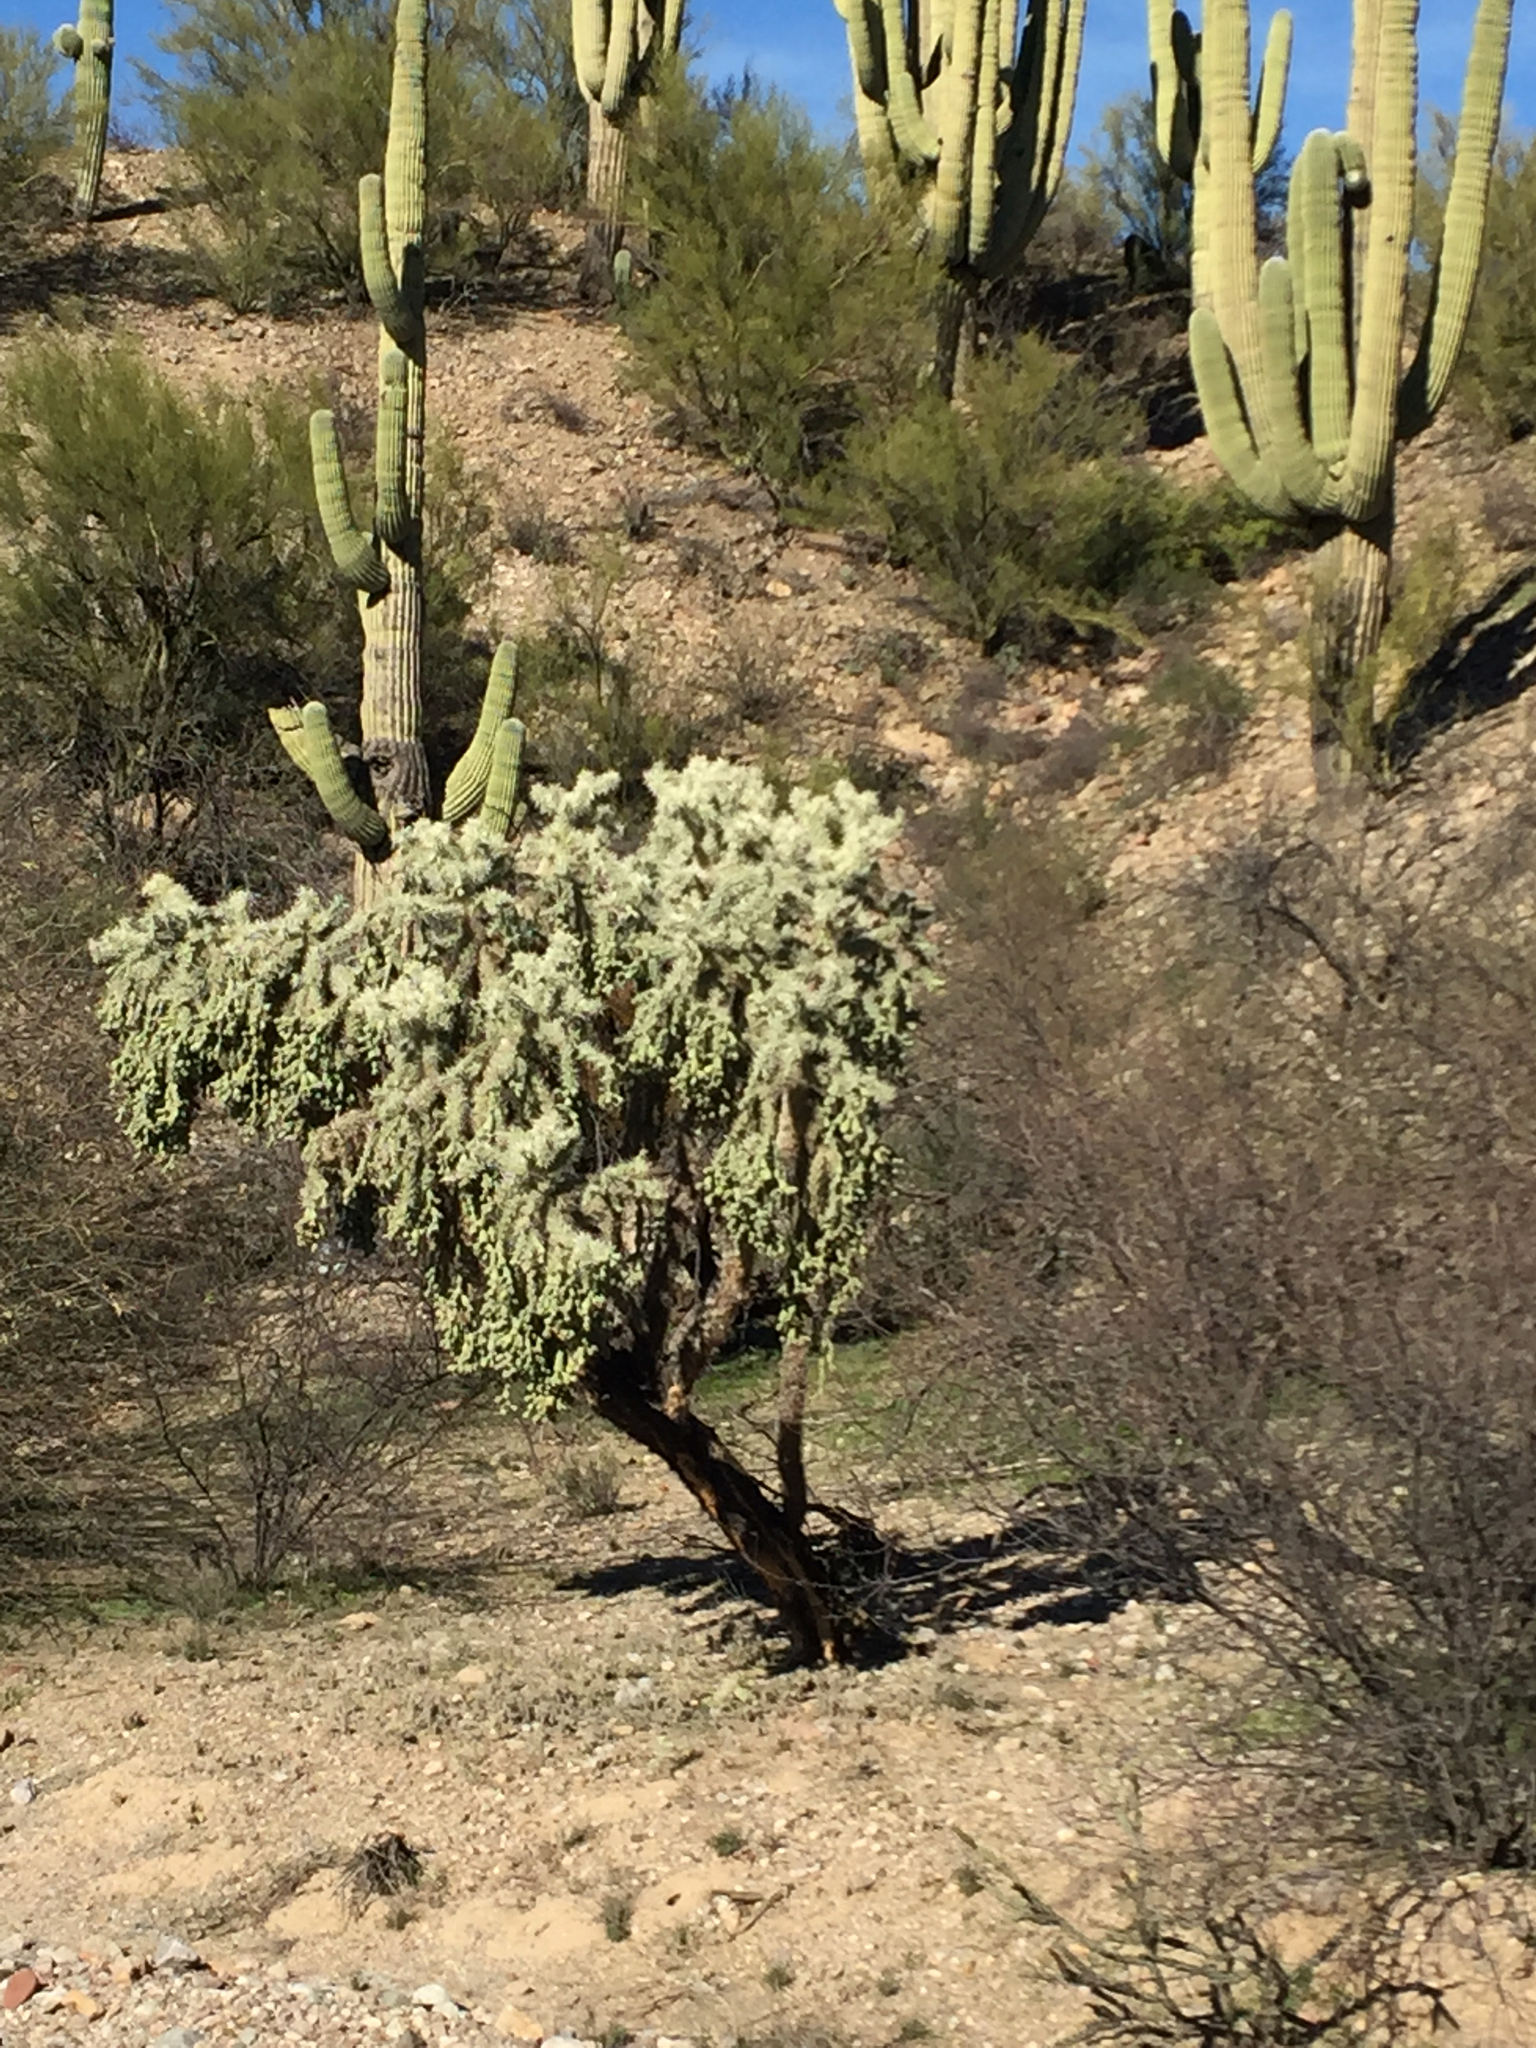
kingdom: Plantae
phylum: Tracheophyta
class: Magnoliopsida
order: Caryophyllales
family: Cactaceae
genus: Cylindropuntia
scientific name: Cylindropuntia fulgida
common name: Jumping cholla
